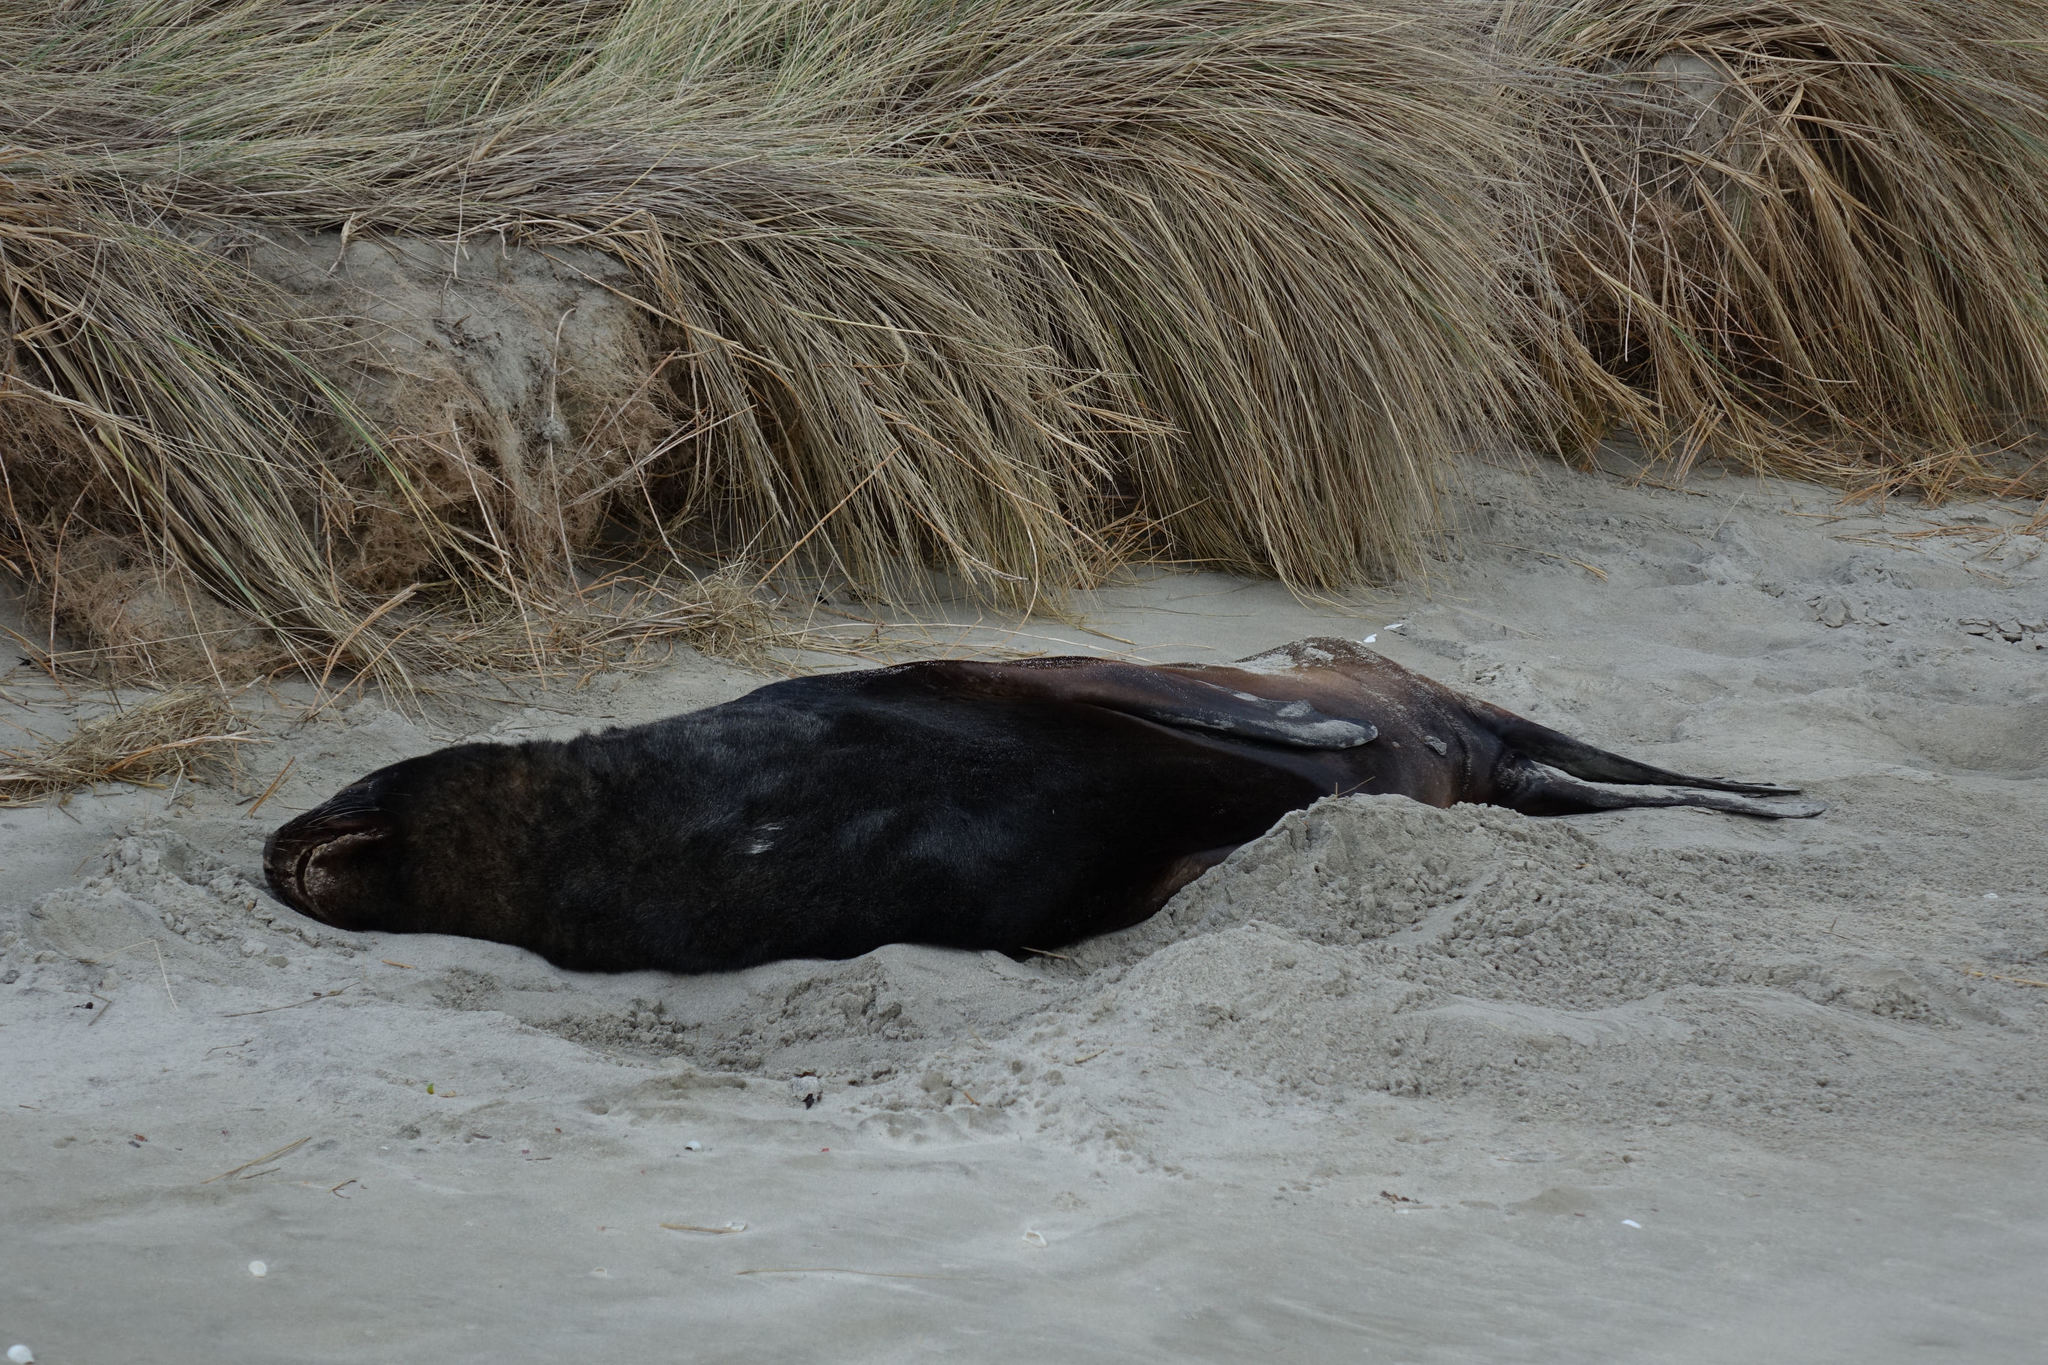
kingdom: Animalia
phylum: Chordata
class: Mammalia
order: Carnivora
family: Otariidae
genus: Phocarctos
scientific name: Phocarctos hookeri
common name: New zealand sea lion
